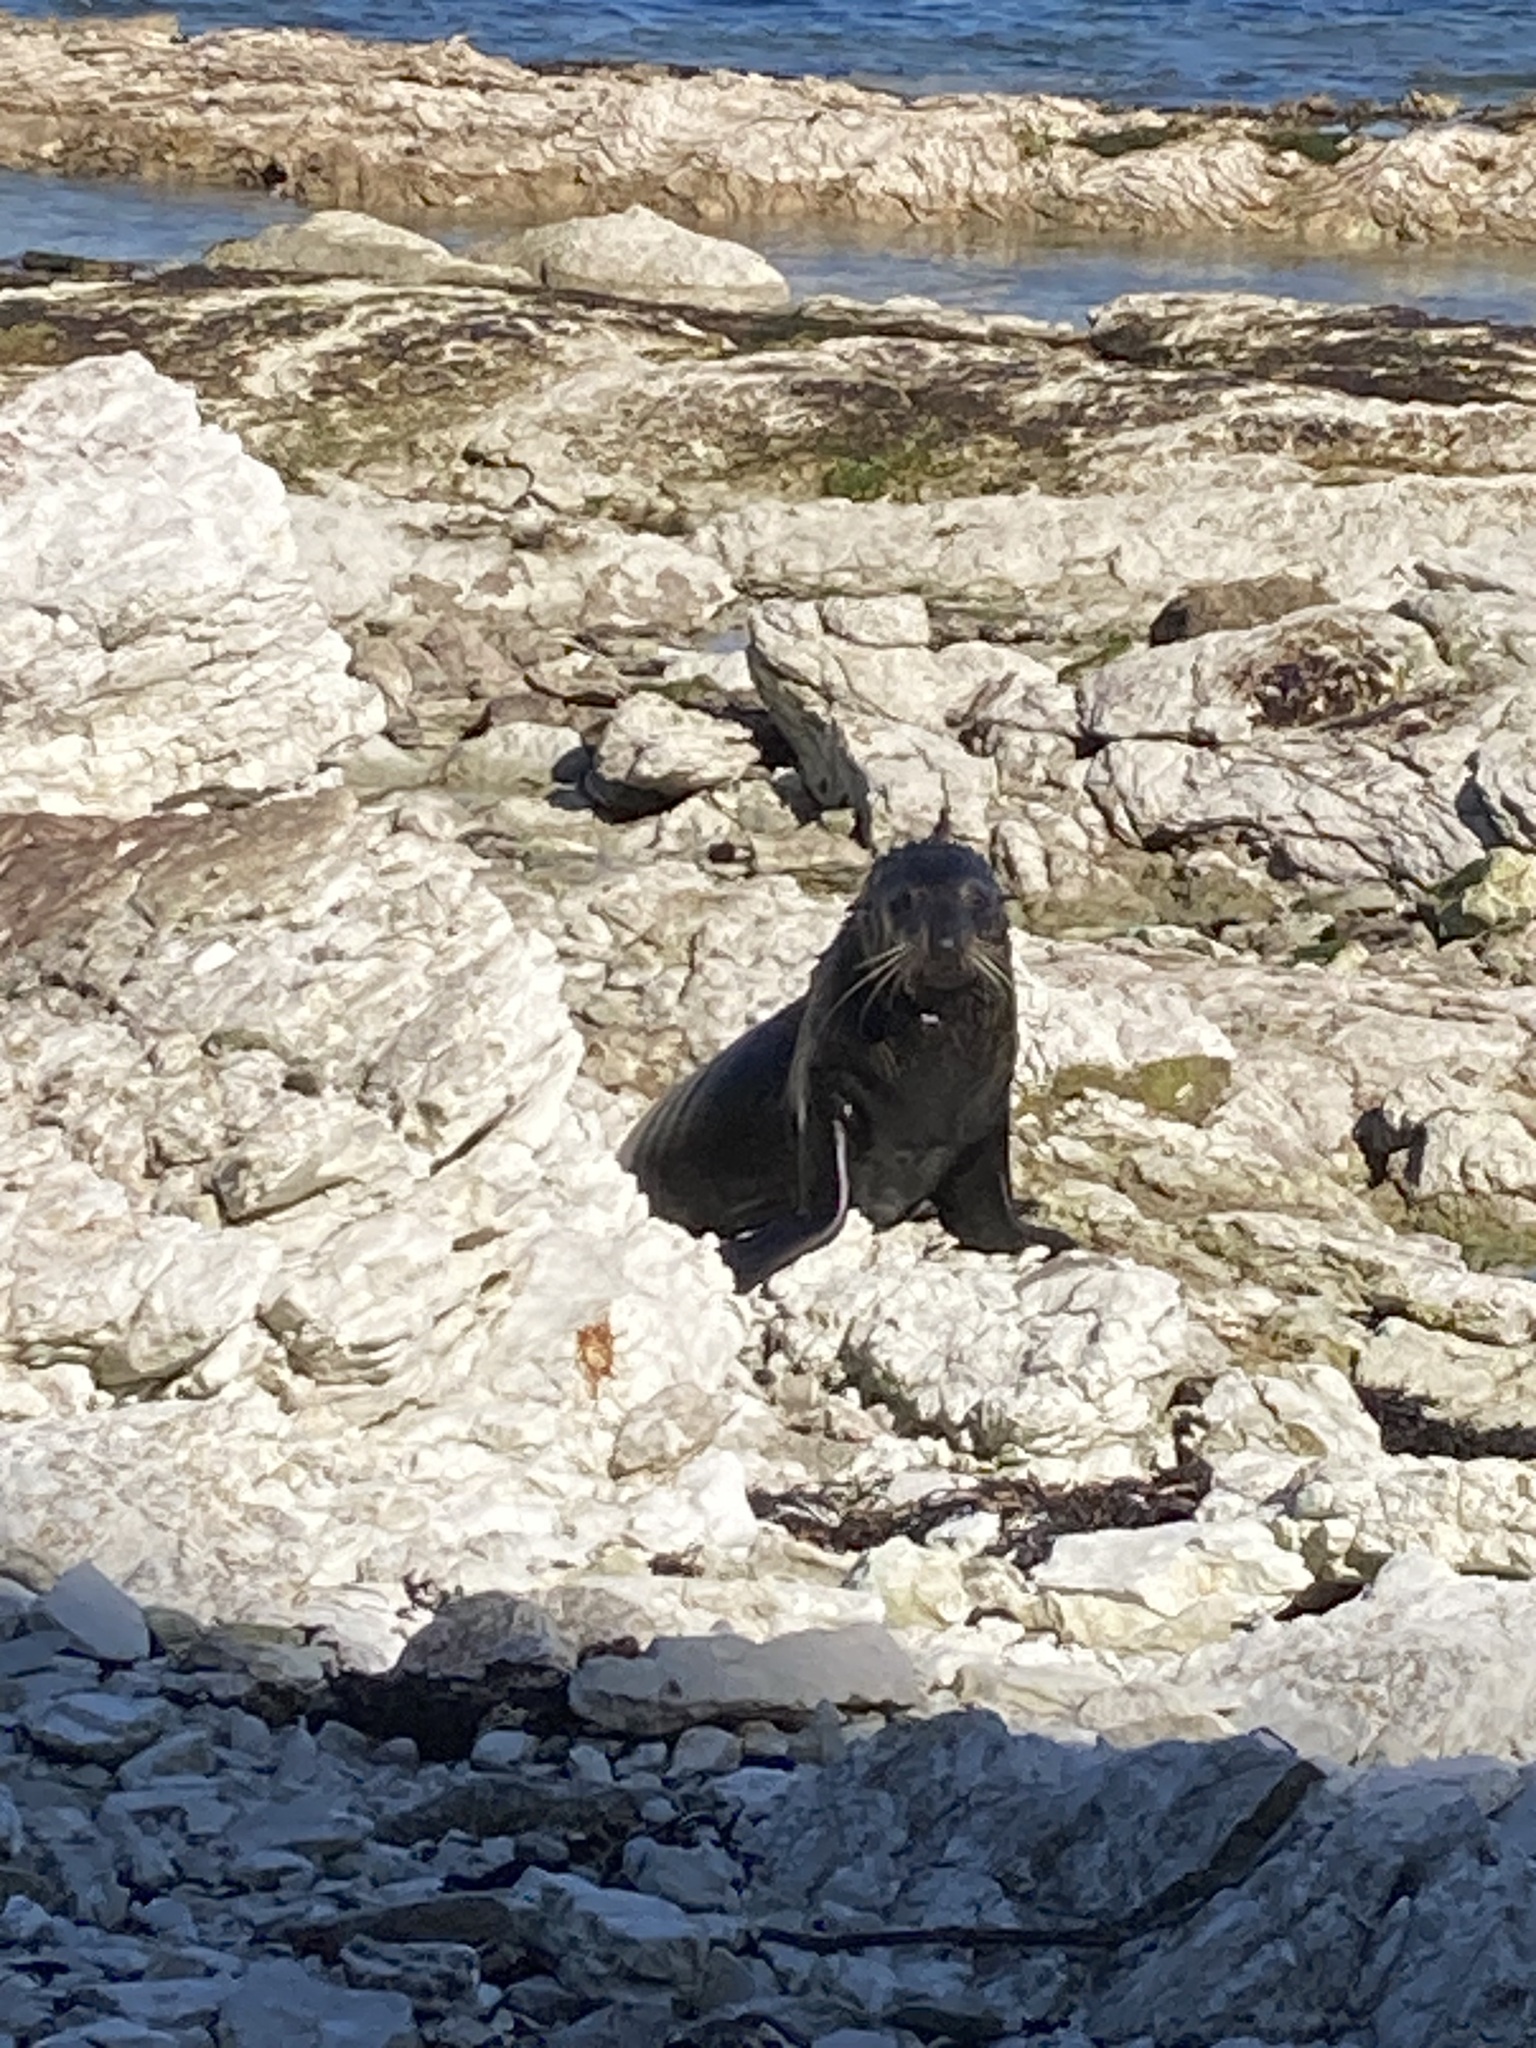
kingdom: Animalia
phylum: Chordata
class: Mammalia
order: Carnivora
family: Otariidae
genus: Arctocephalus
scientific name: Arctocephalus forsteri
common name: New zealand fur seal
